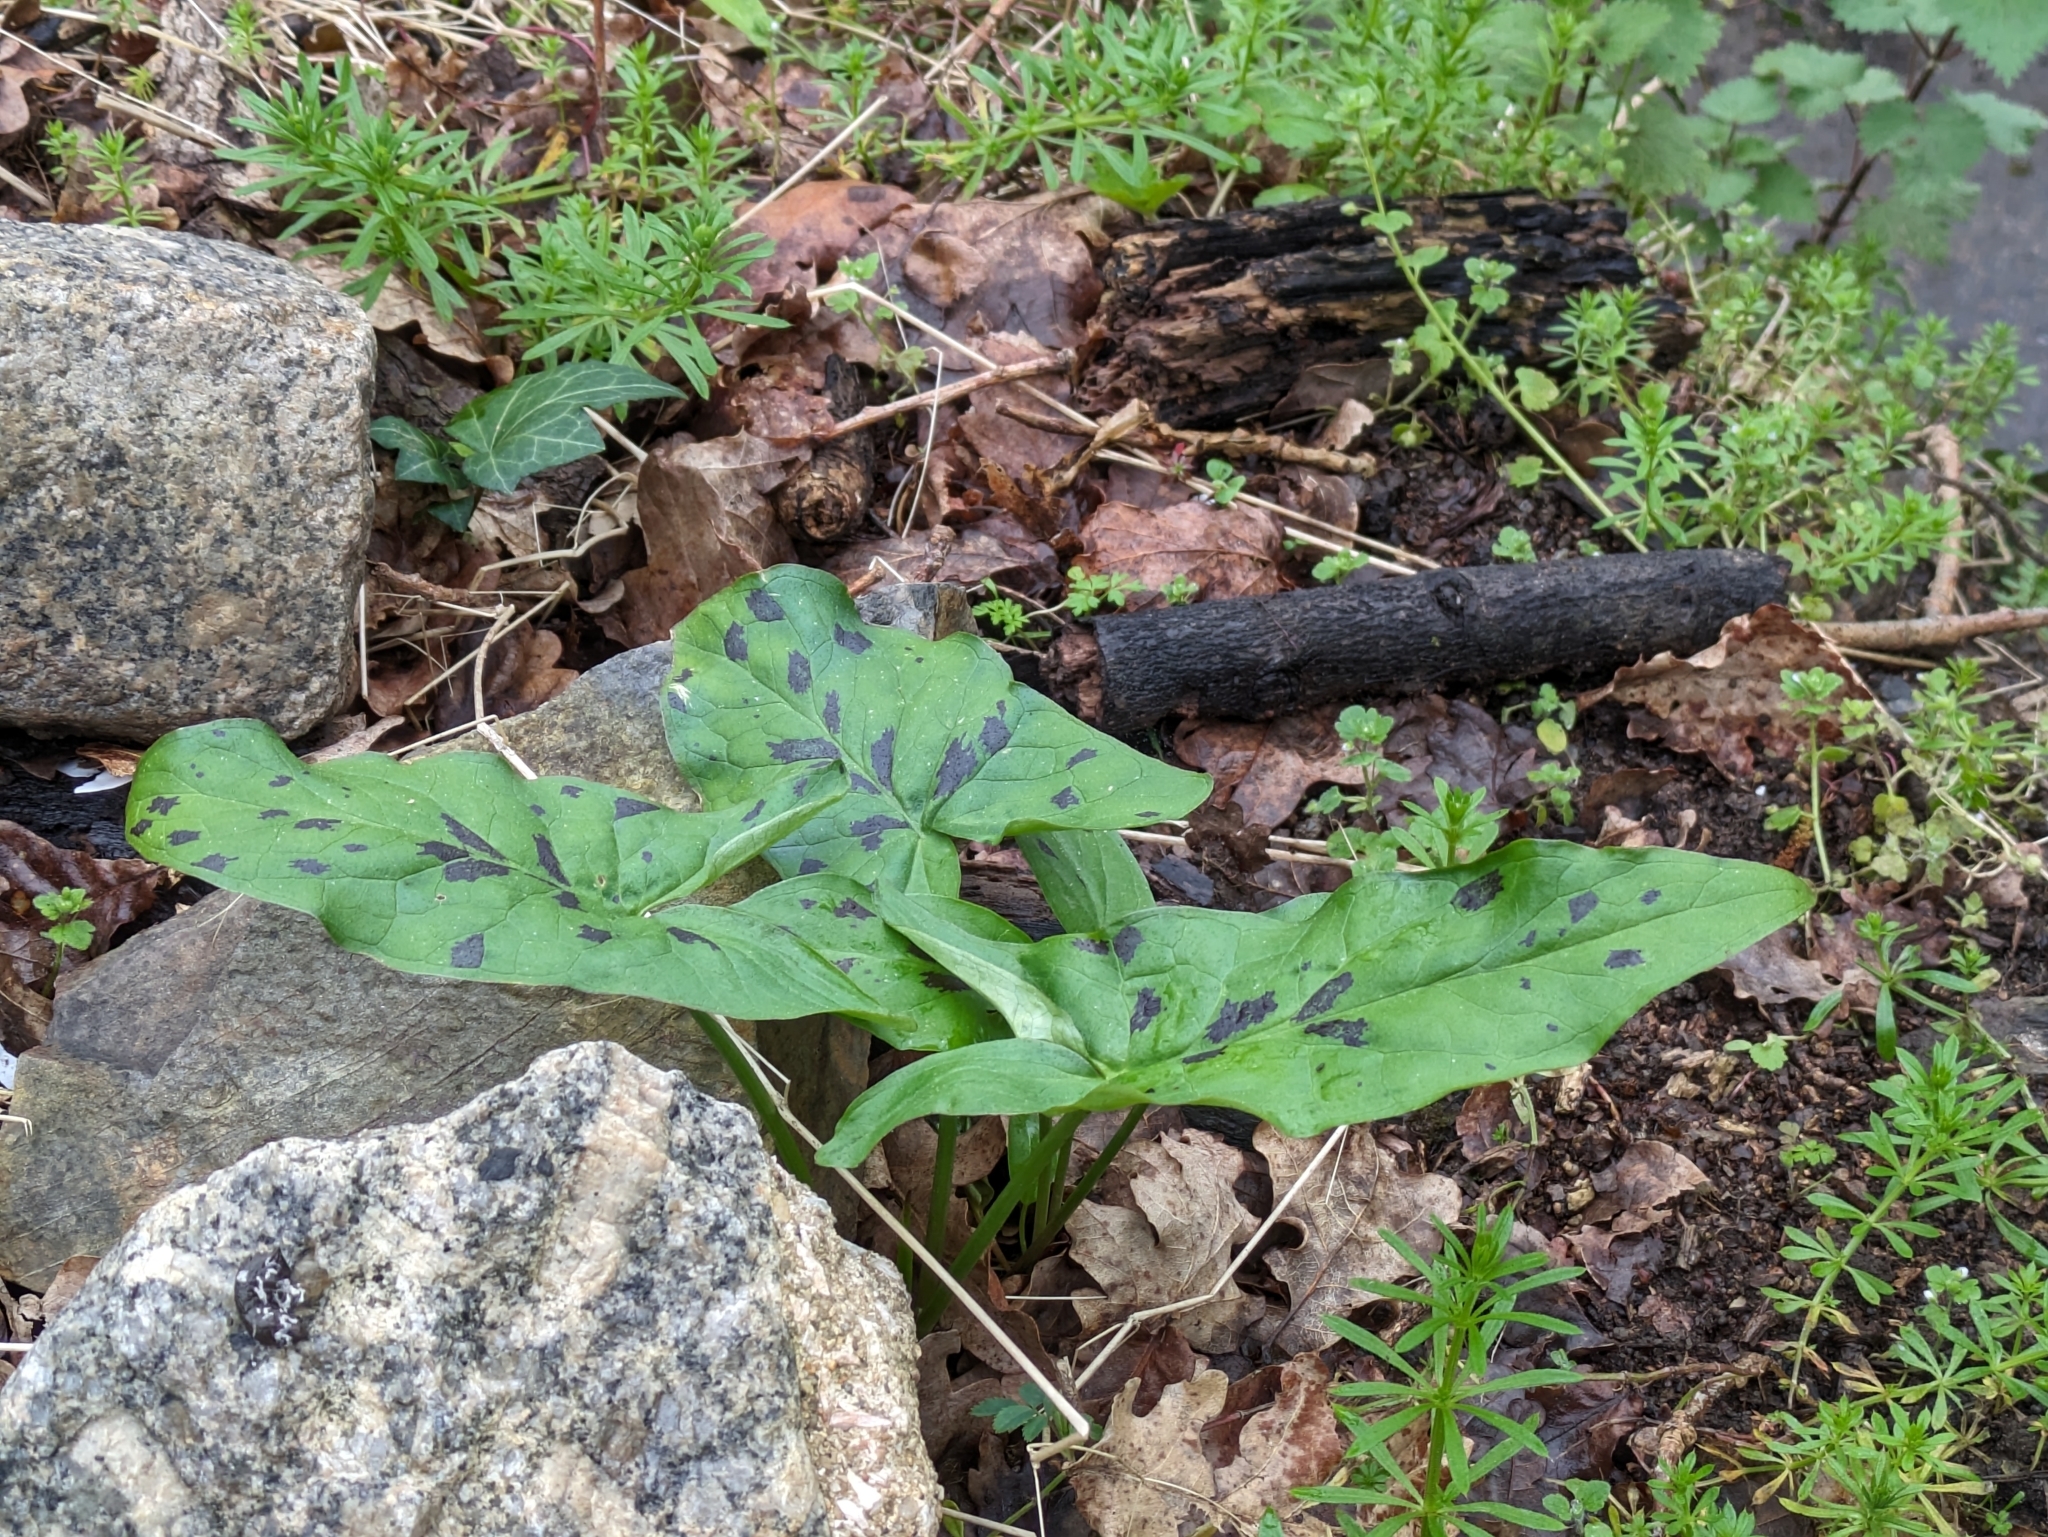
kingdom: Plantae
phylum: Tracheophyta
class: Liliopsida
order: Alismatales
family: Araceae
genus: Arum
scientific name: Arum maculatum
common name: Lords-and-ladies
